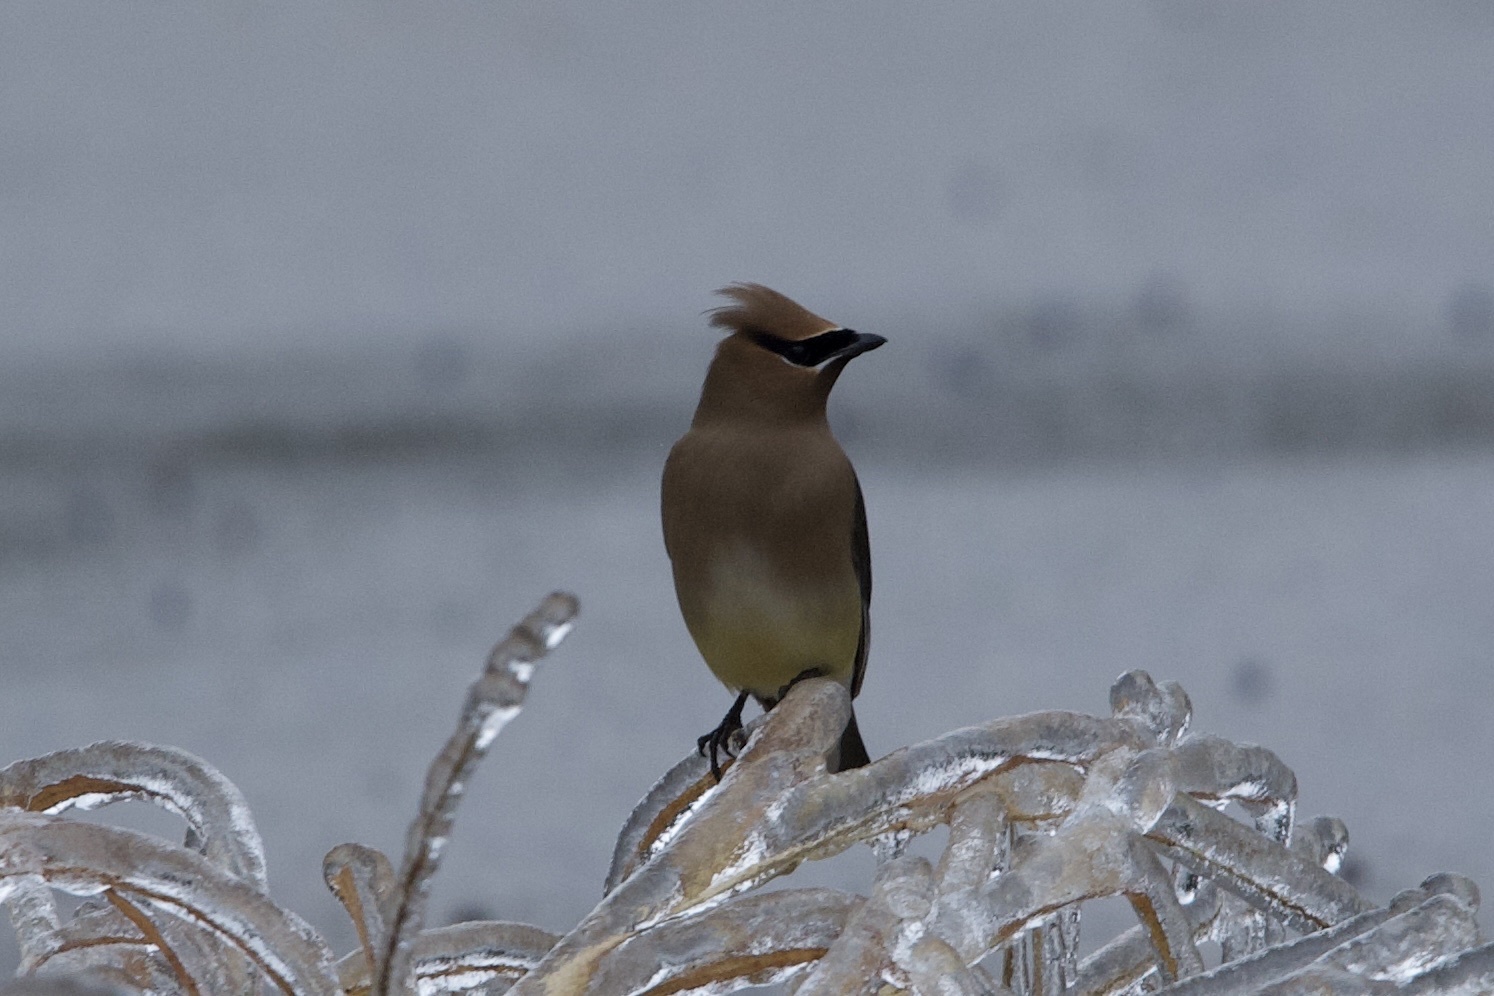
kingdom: Animalia
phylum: Chordata
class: Aves
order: Passeriformes
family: Bombycillidae
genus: Bombycilla
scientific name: Bombycilla cedrorum
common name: Cedar waxwing
